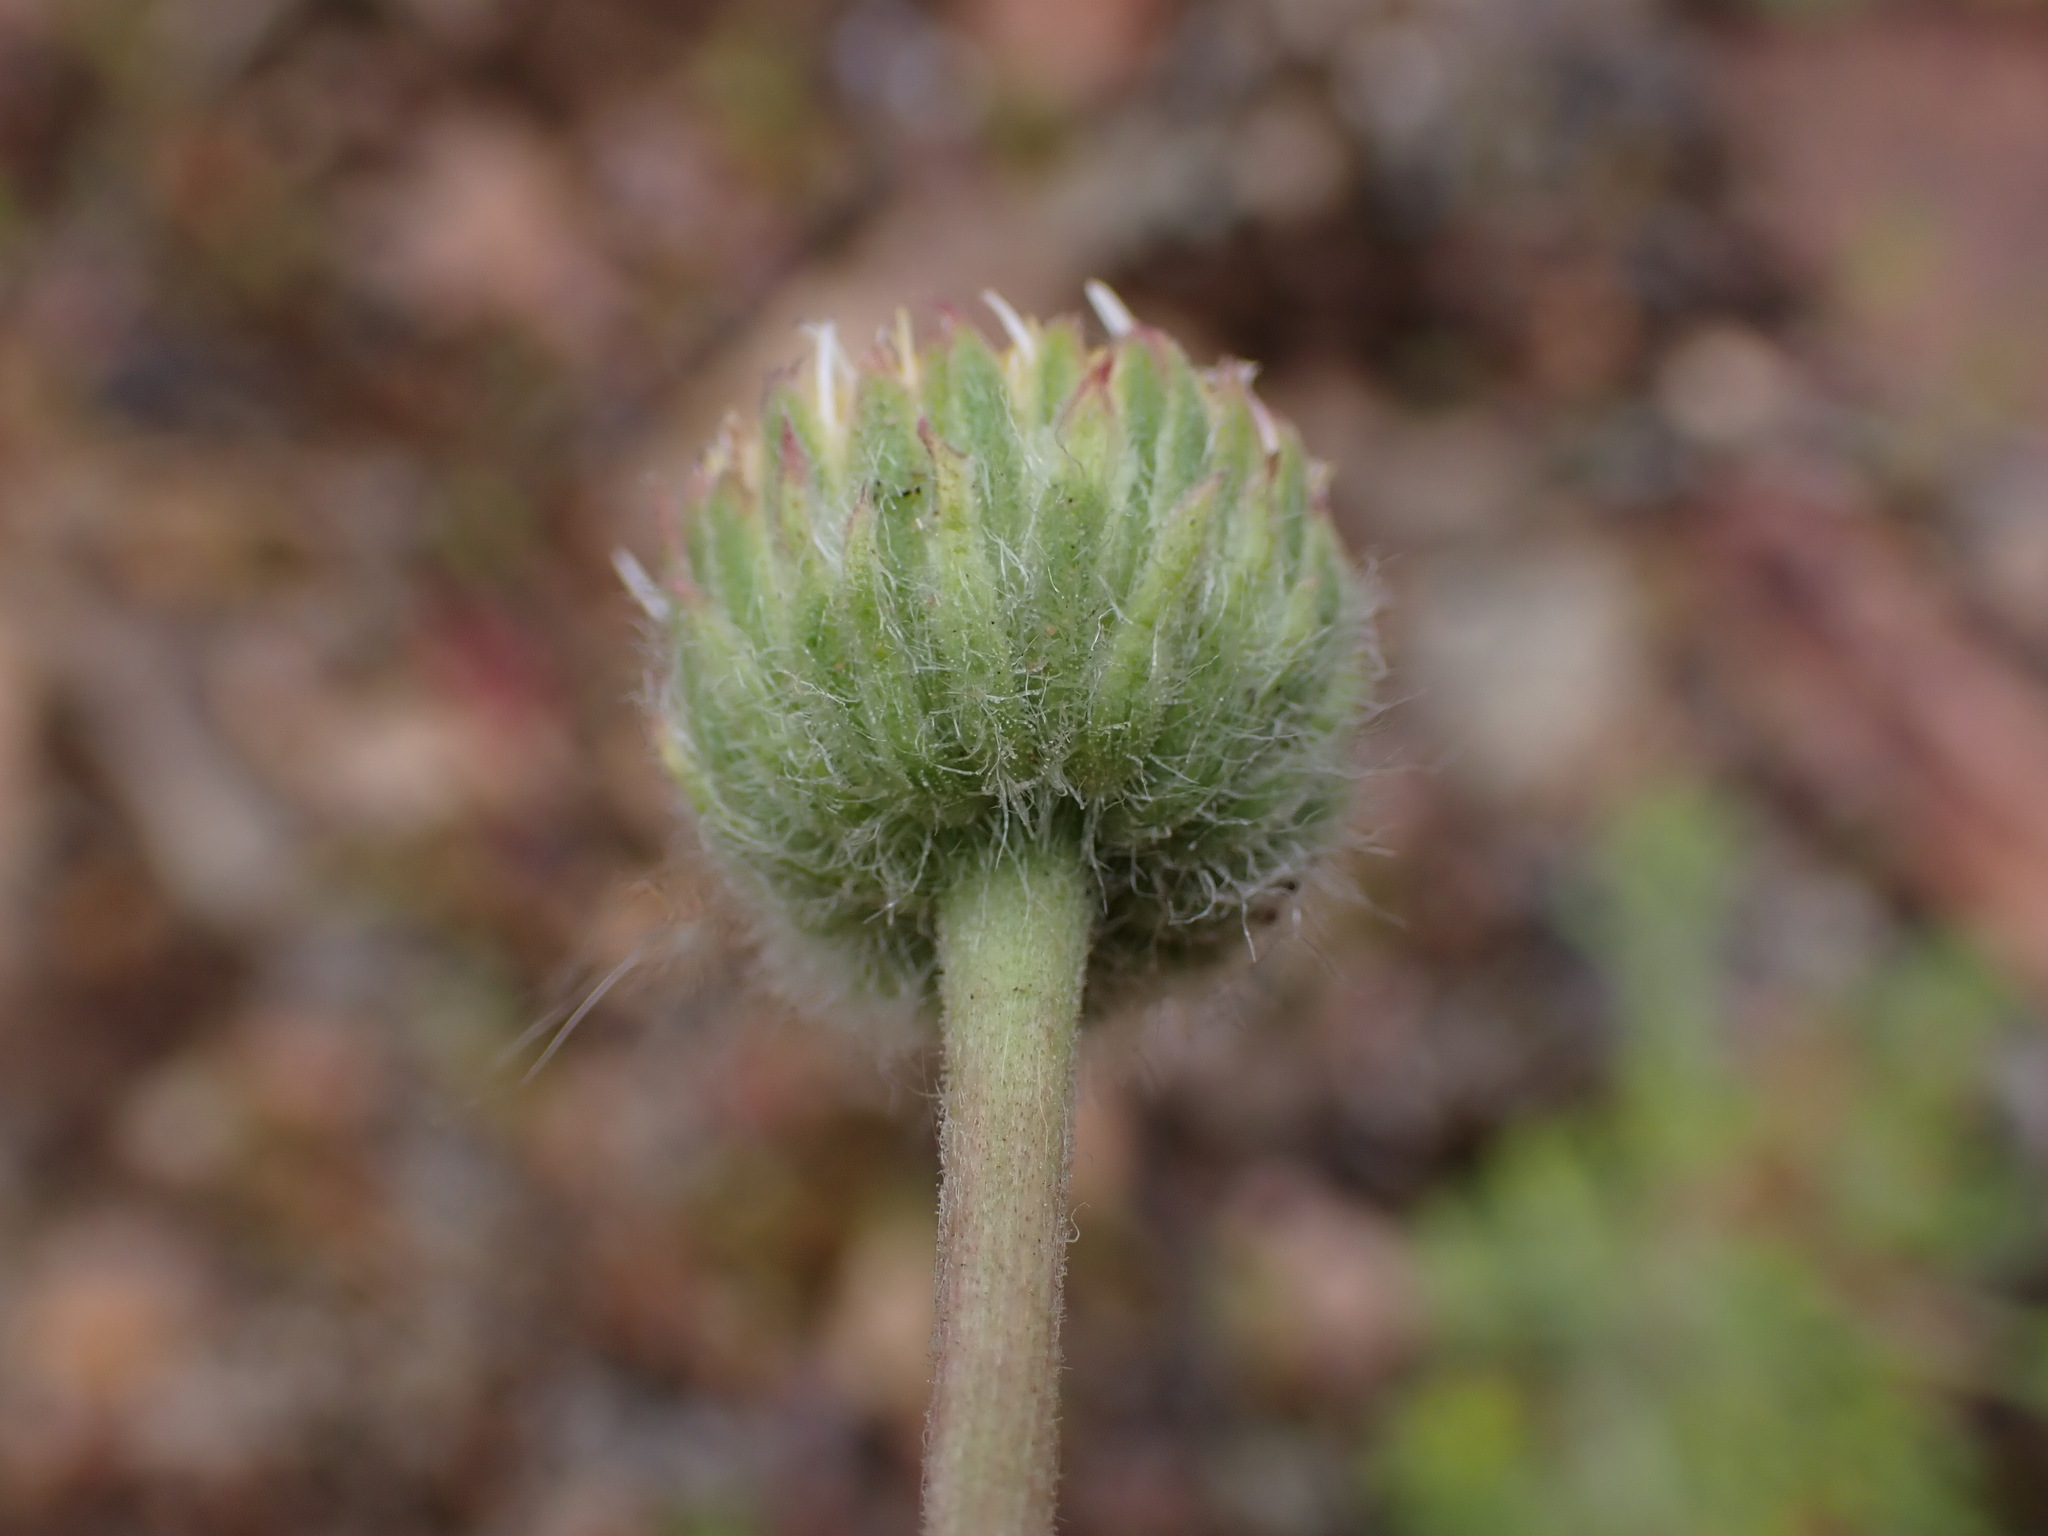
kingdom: Plantae
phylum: Tracheophyta
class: Magnoliopsida
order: Asterales
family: Asteraceae
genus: Erigeron
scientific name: Erigeron compositus
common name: Dwarf mountain fleabane
